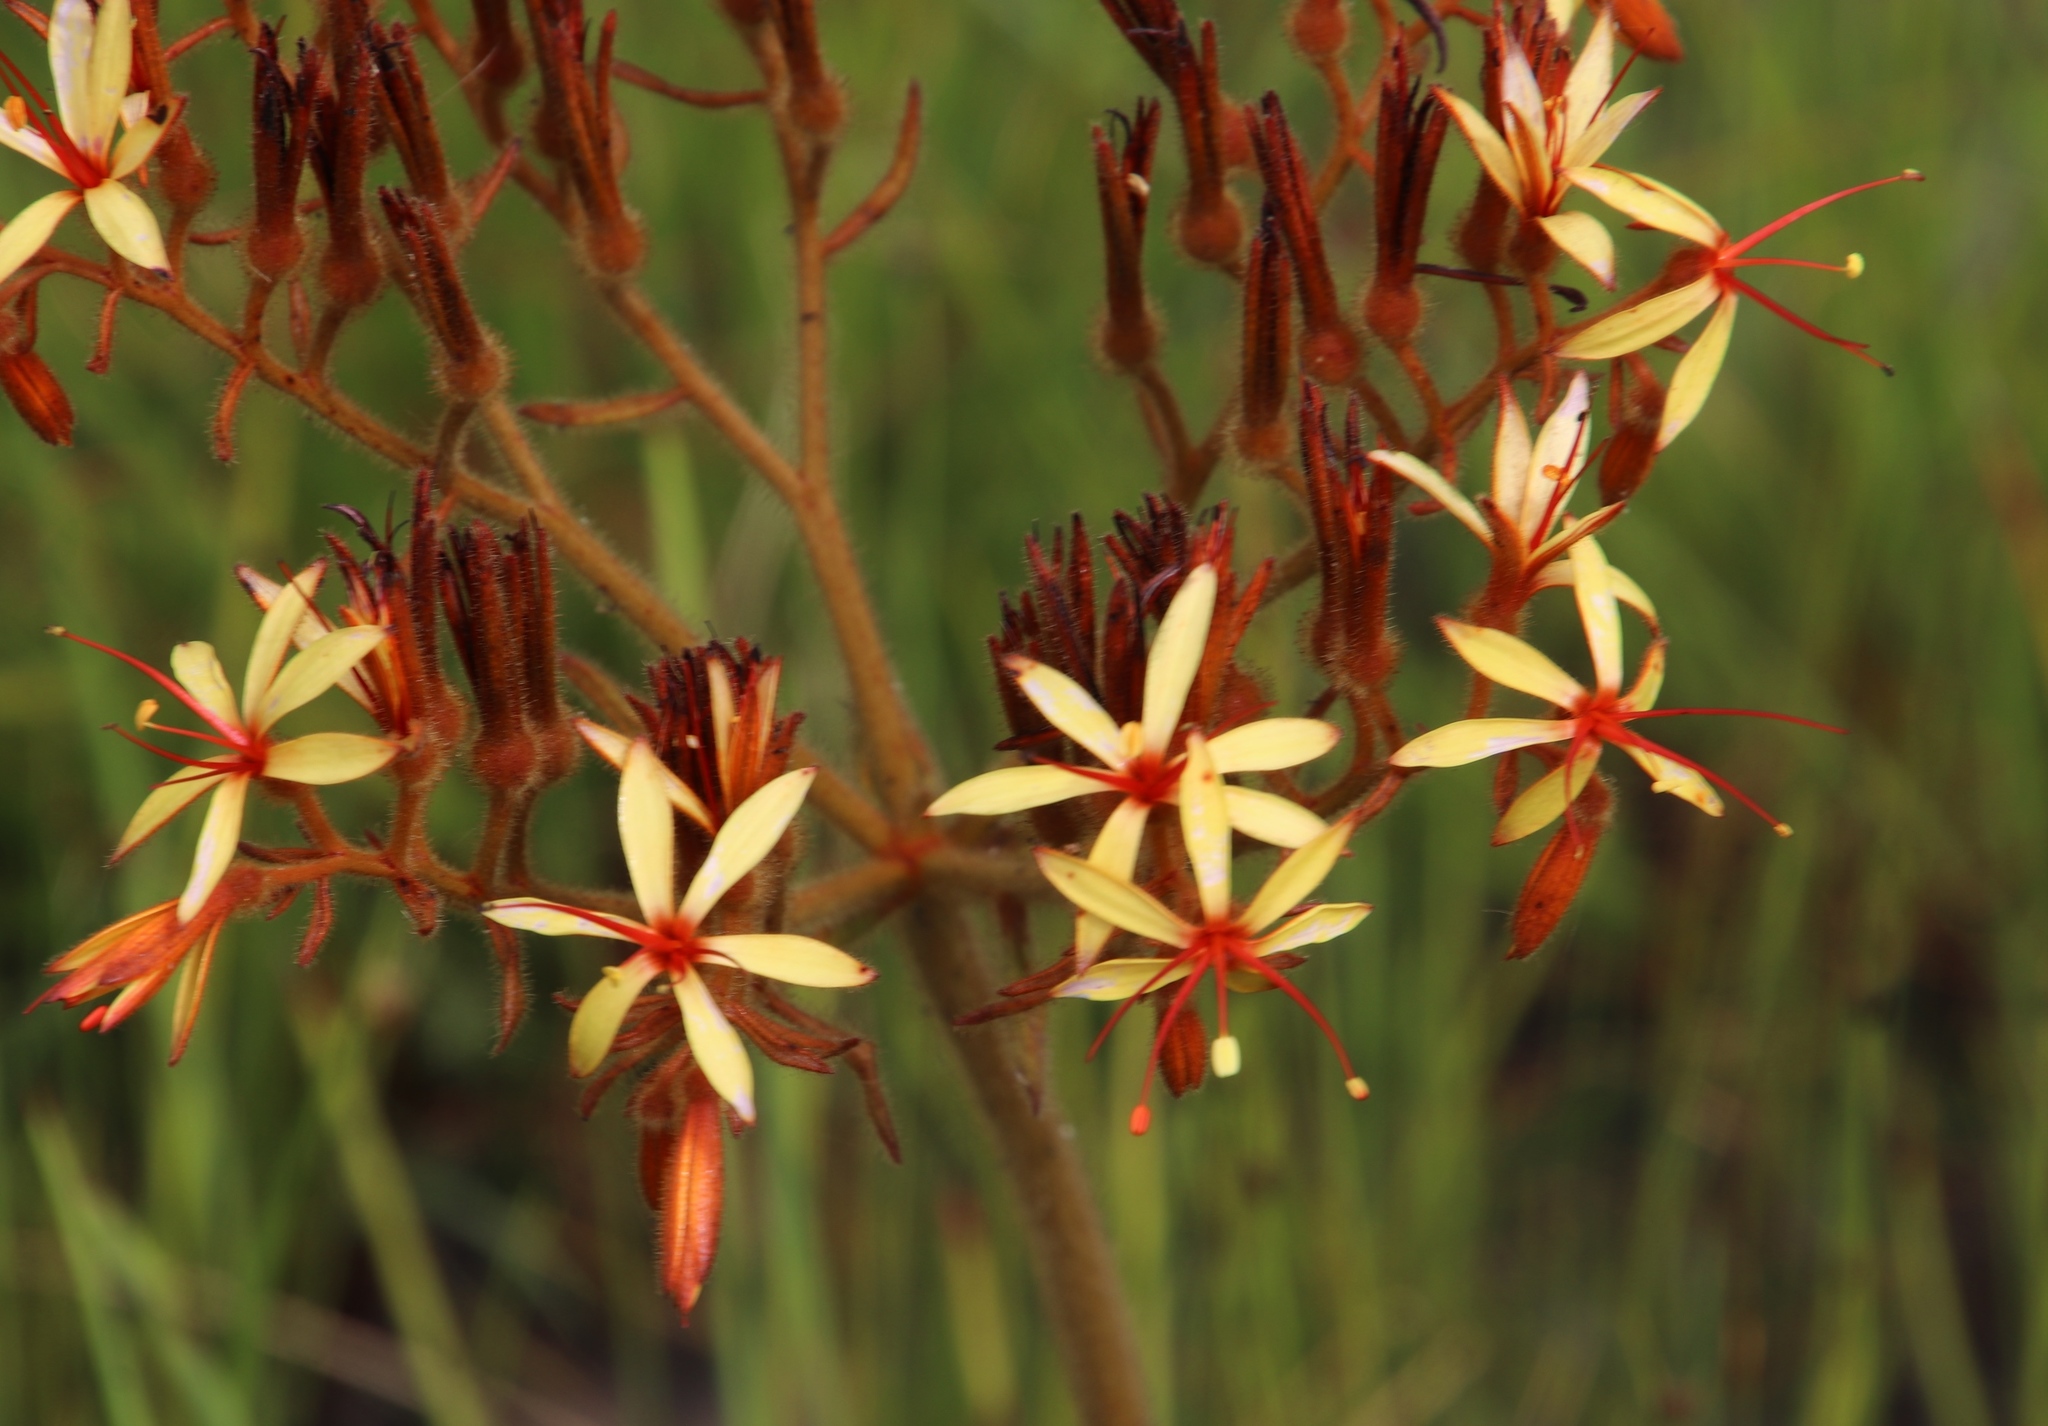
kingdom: Plantae
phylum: Tracheophyta
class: Liliopsida
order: Commelinales
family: Haemodoraceae
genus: Dilatris
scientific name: Dilatris viscosa
